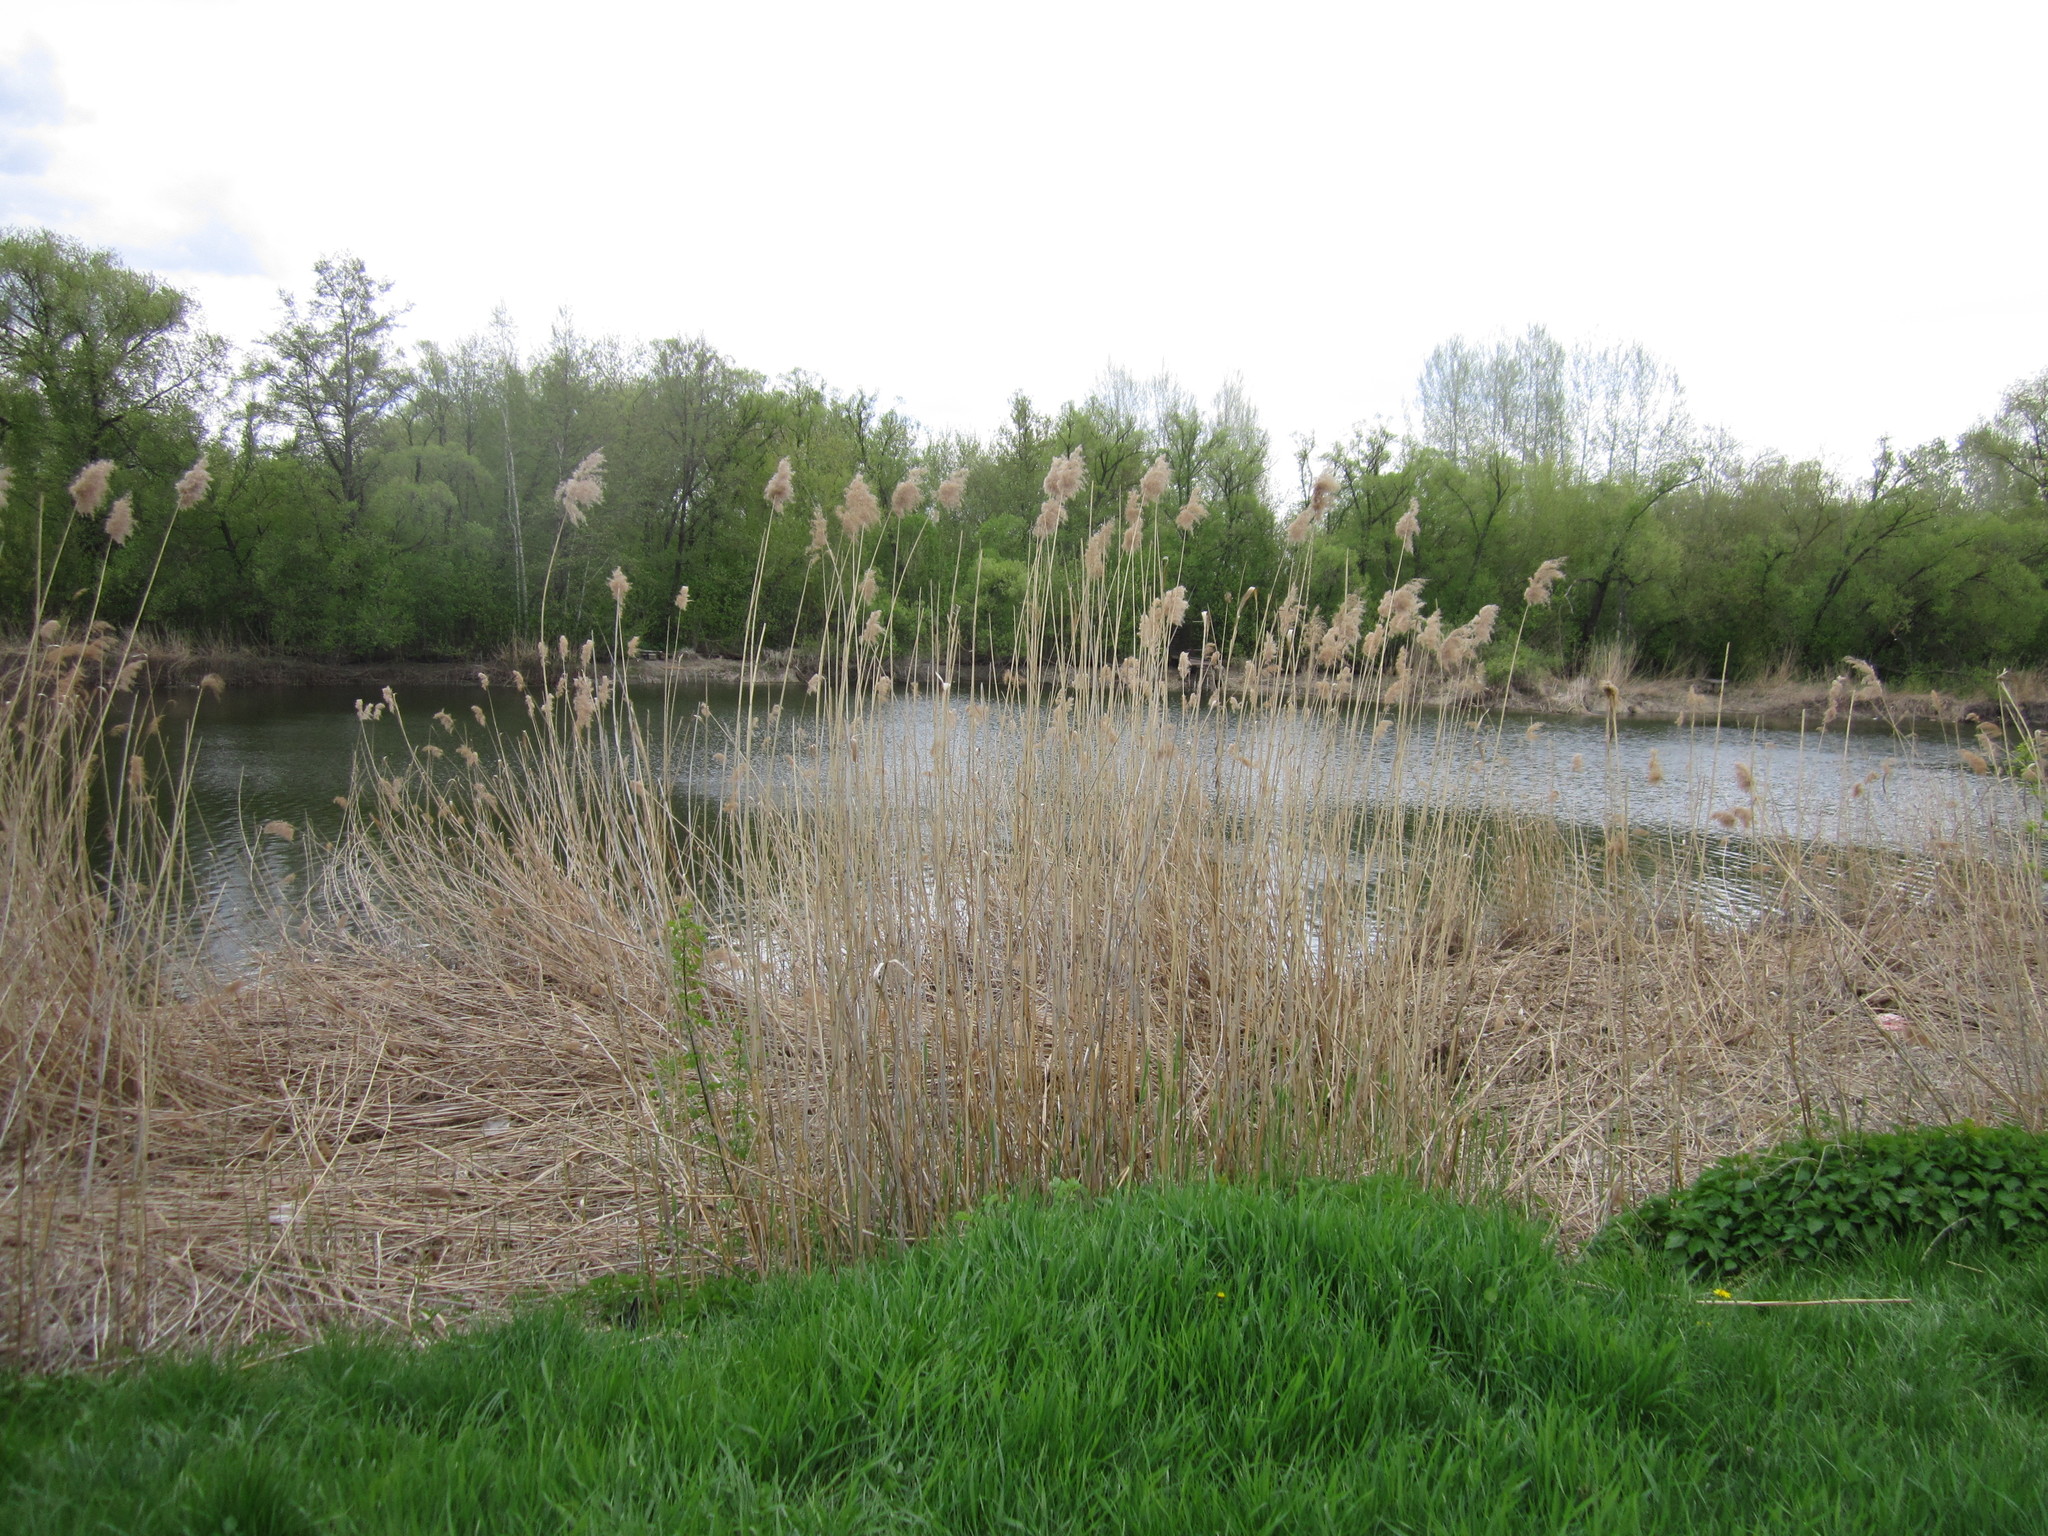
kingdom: Plantae
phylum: Tracheophyta
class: Liliopsida
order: Poales
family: Poaceae
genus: Phragmites
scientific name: Phragmites australis
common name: Common reed
